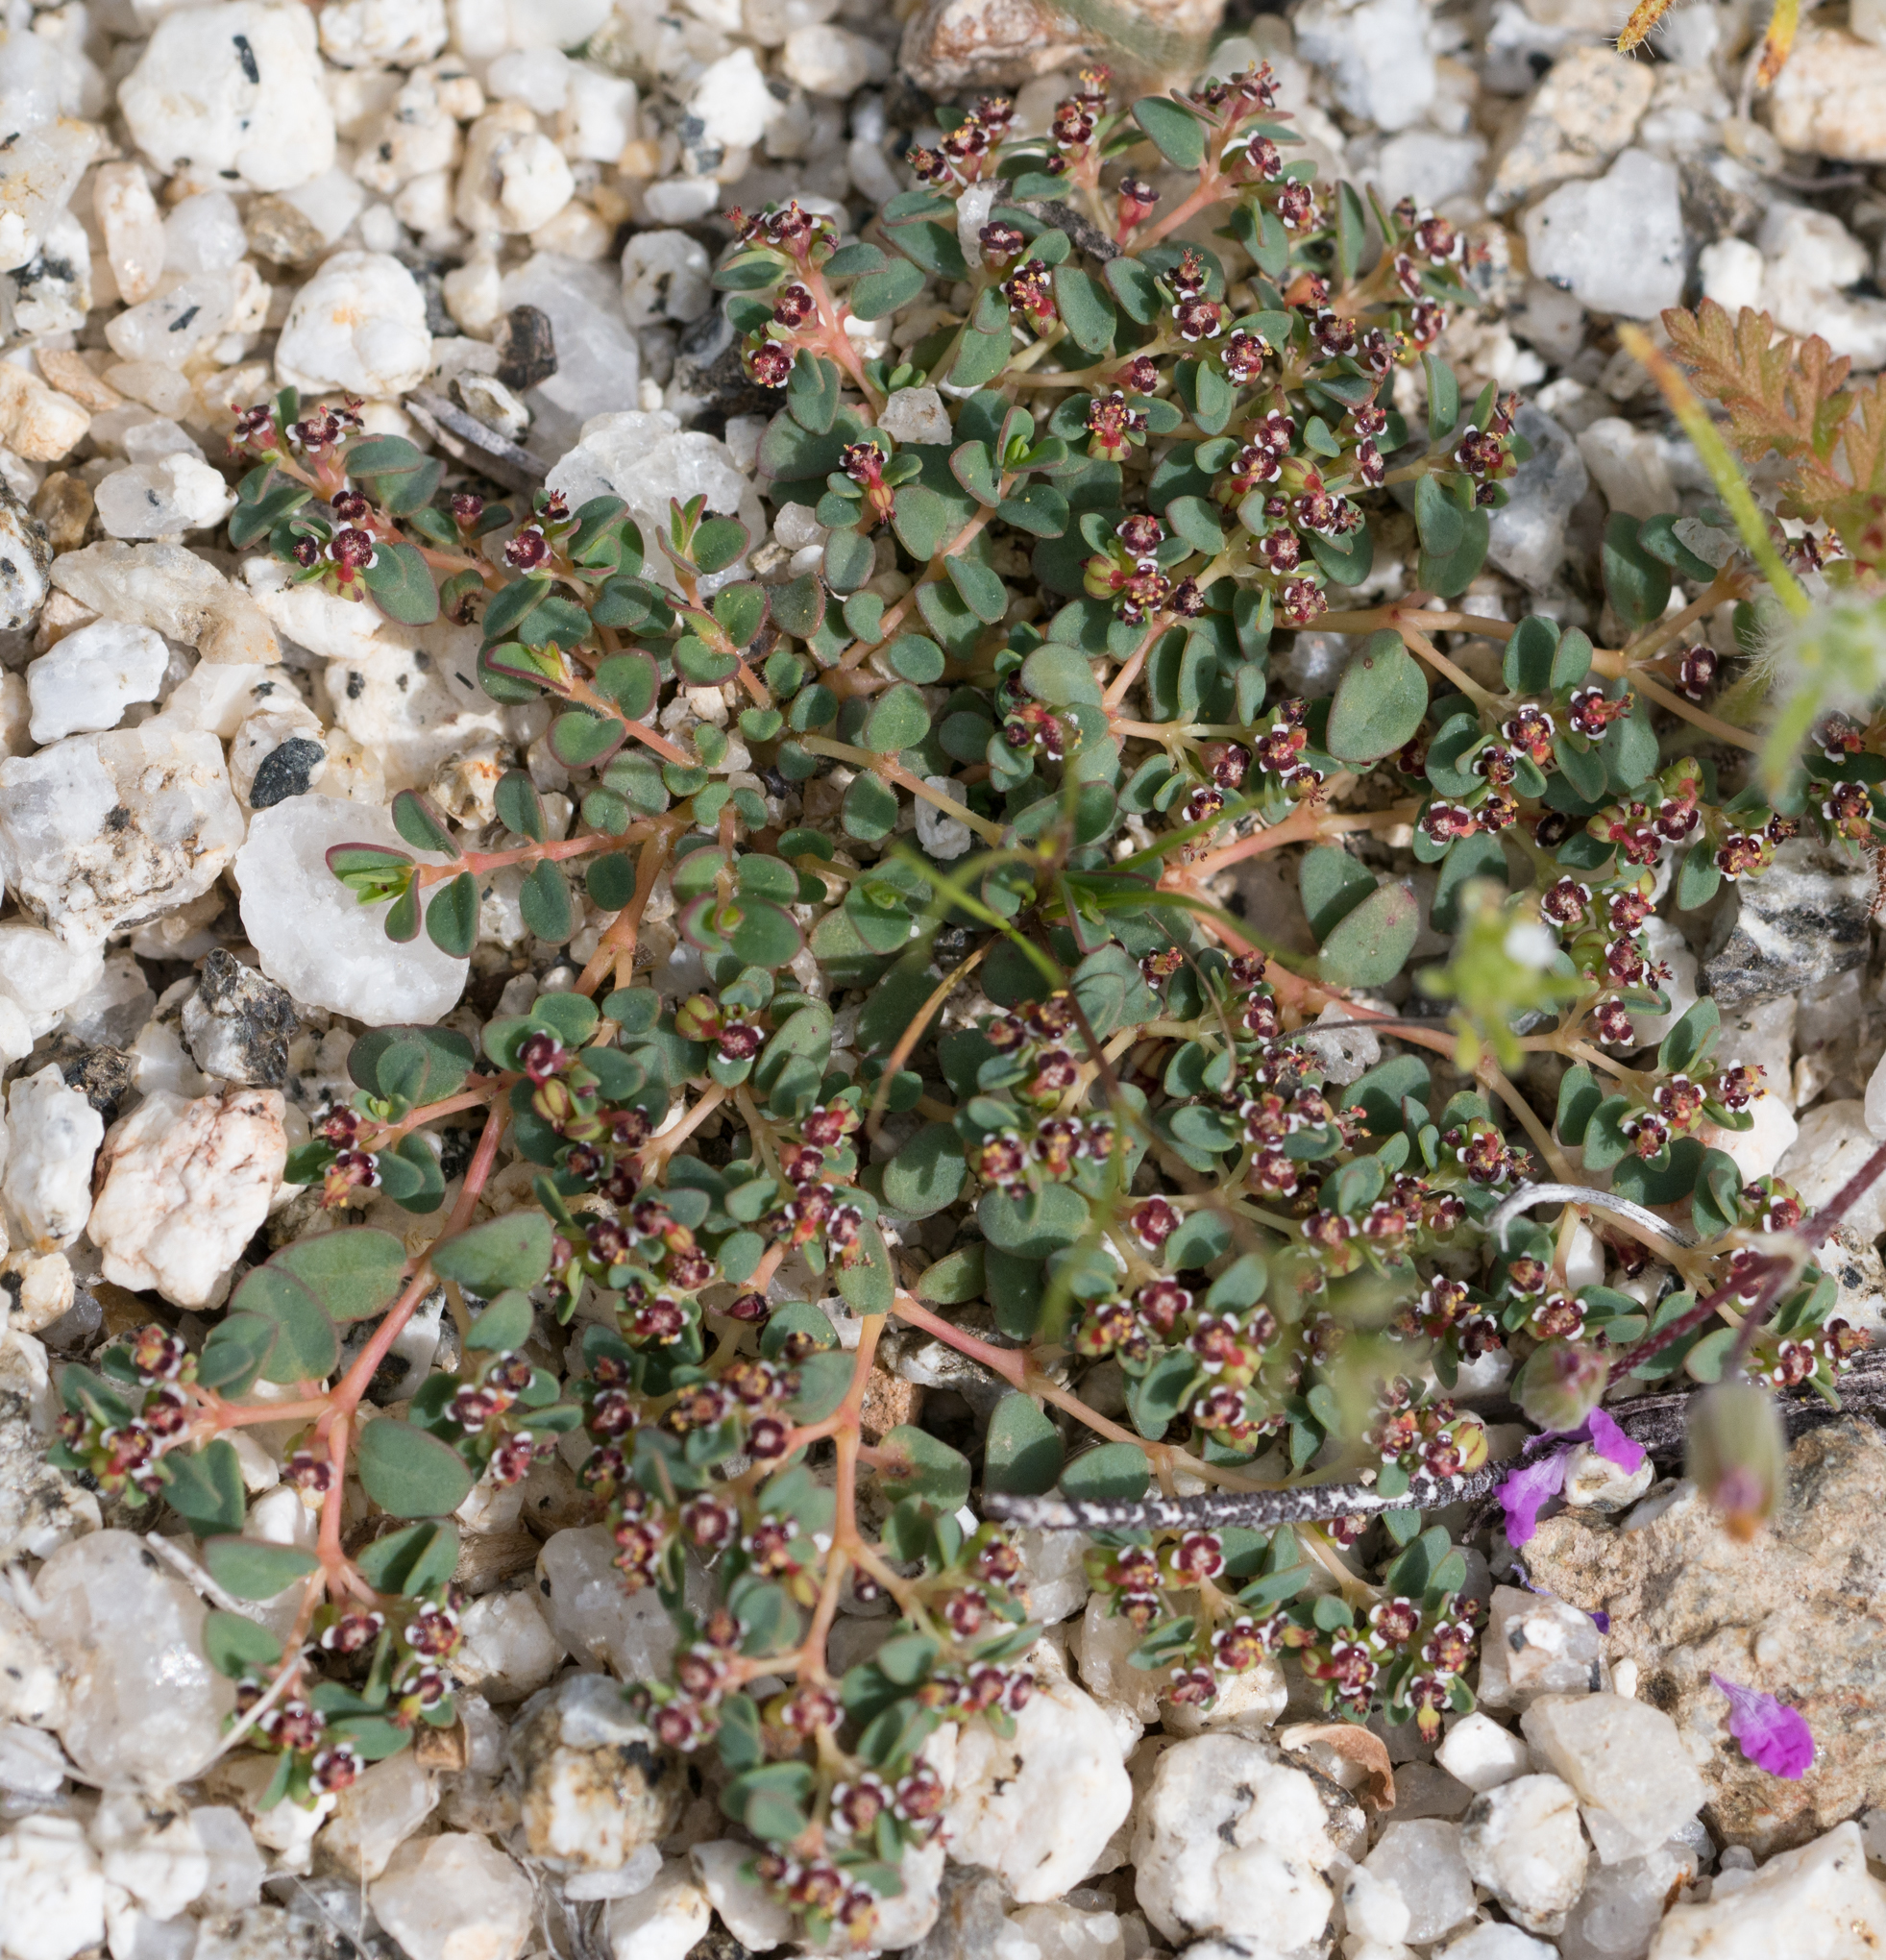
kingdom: Plantae
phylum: Tracheophyta
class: Magnoliopsida
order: Malpighiales
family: Euphorbiaceae
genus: Euphorbia
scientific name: Euphorbia polycarpa
